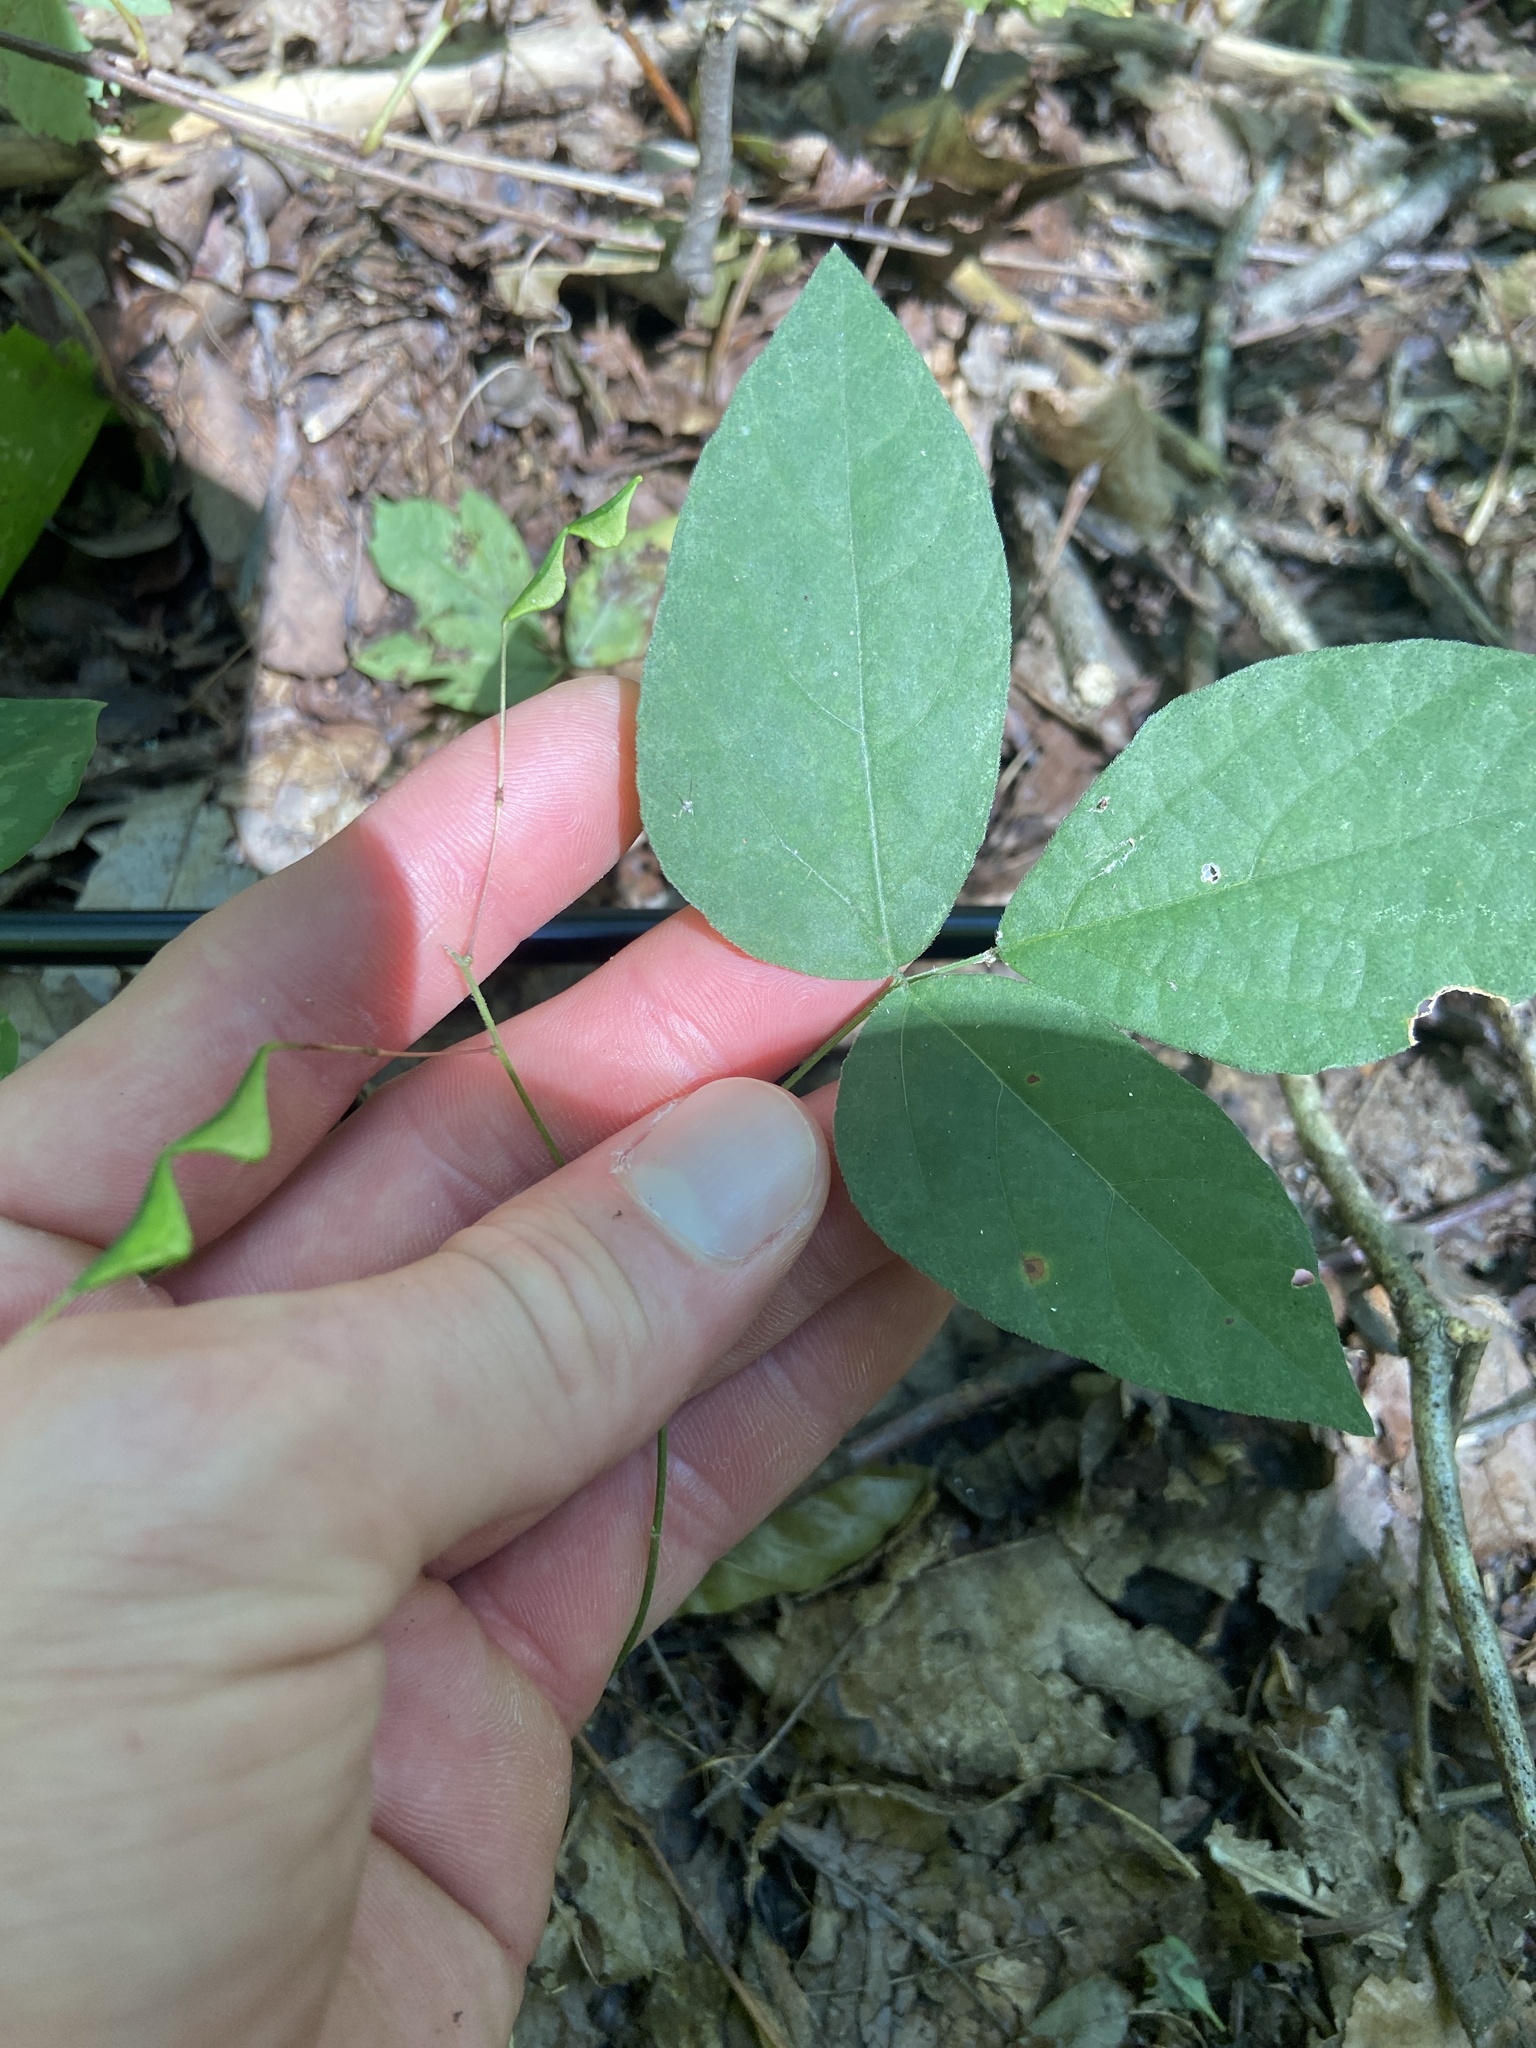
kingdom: Plantae
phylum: Tracheophyta
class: Magnoliopsida
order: Fabales
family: Fabaceae
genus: Hylodesmum
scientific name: Hylodesmum pauciflorum
